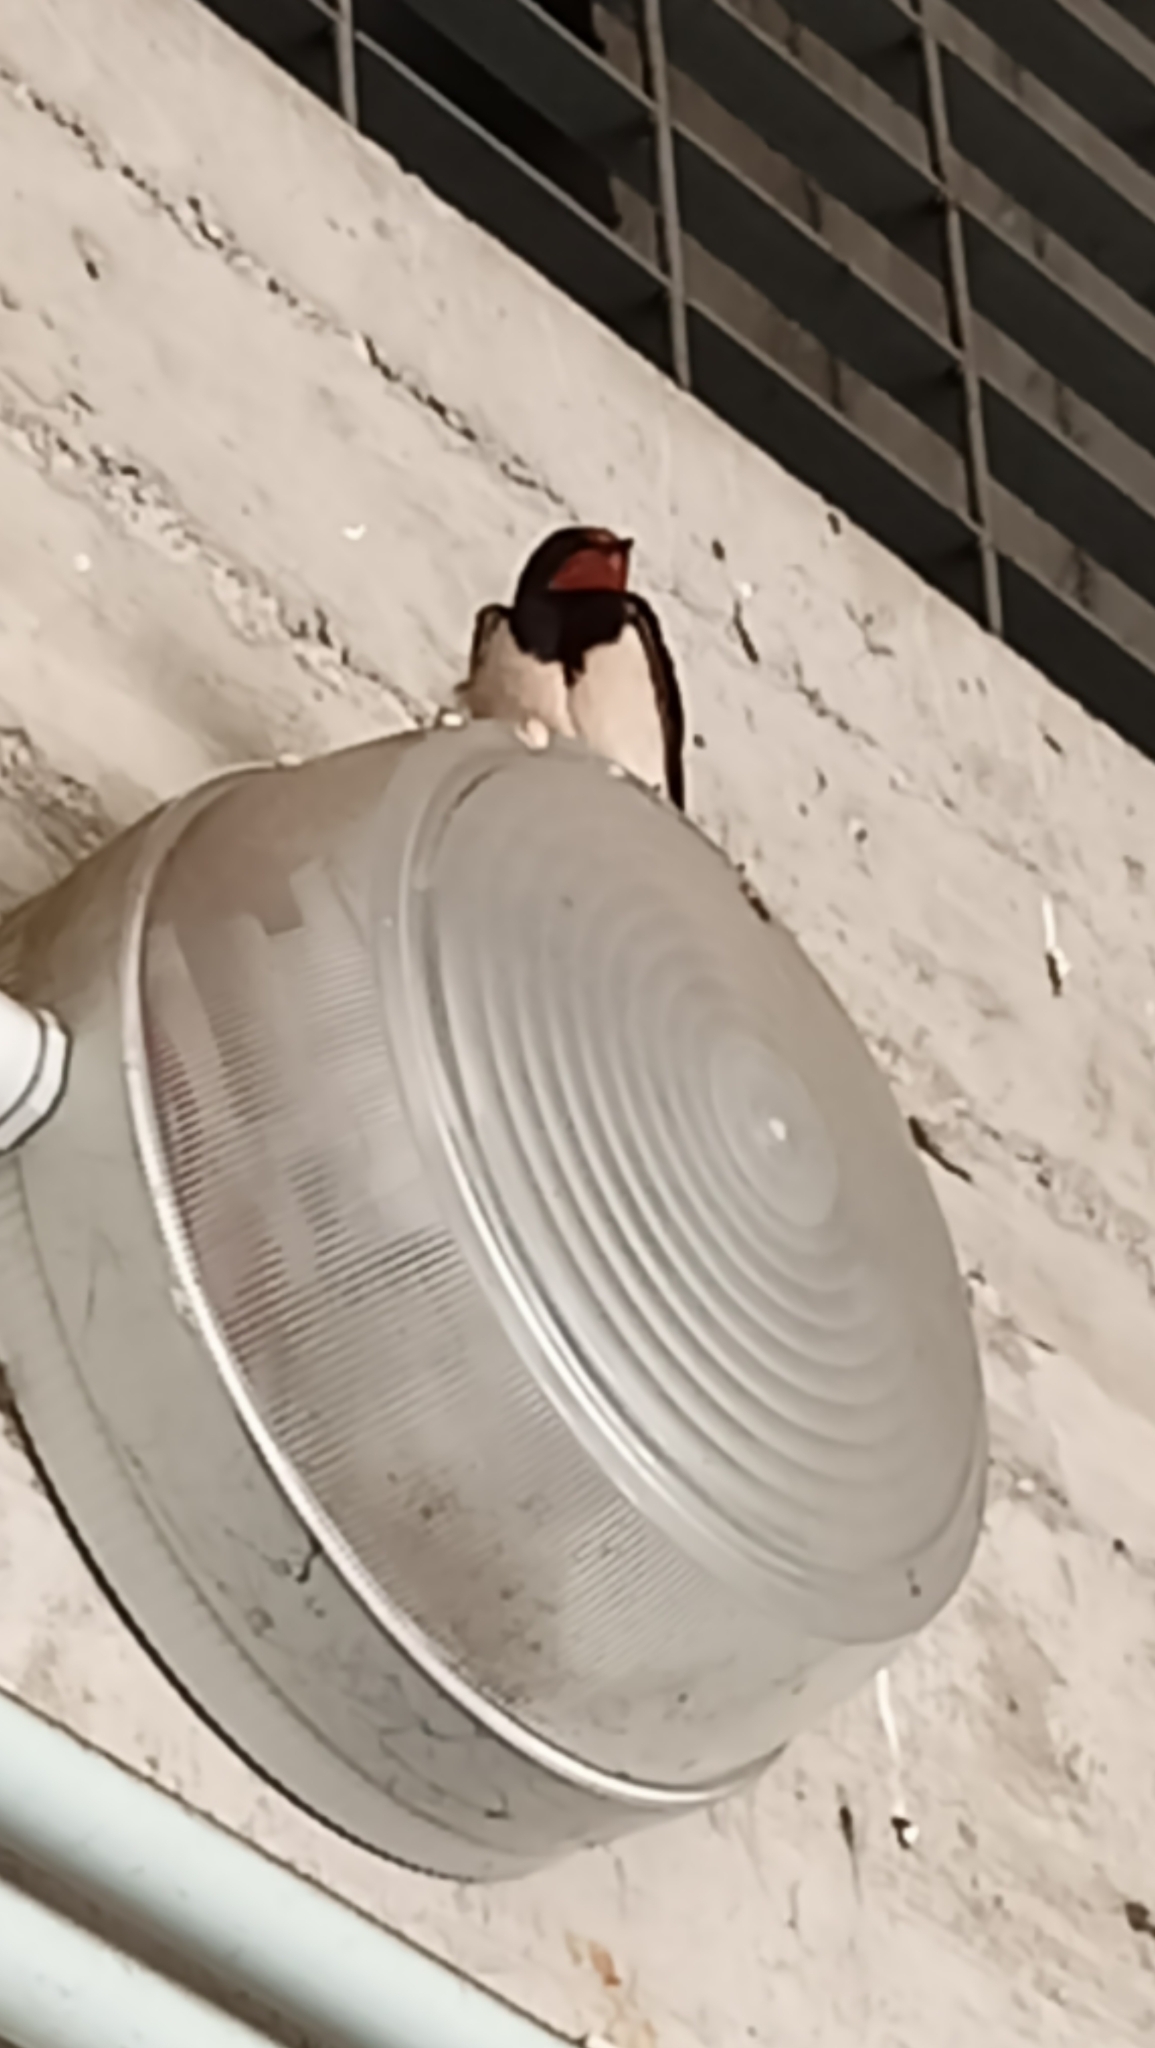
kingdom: Animalia
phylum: Chordata
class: Aves
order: Passeriformes
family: Hirundinidae
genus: Hirundo
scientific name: Hirundo rustica
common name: Barn swallow
